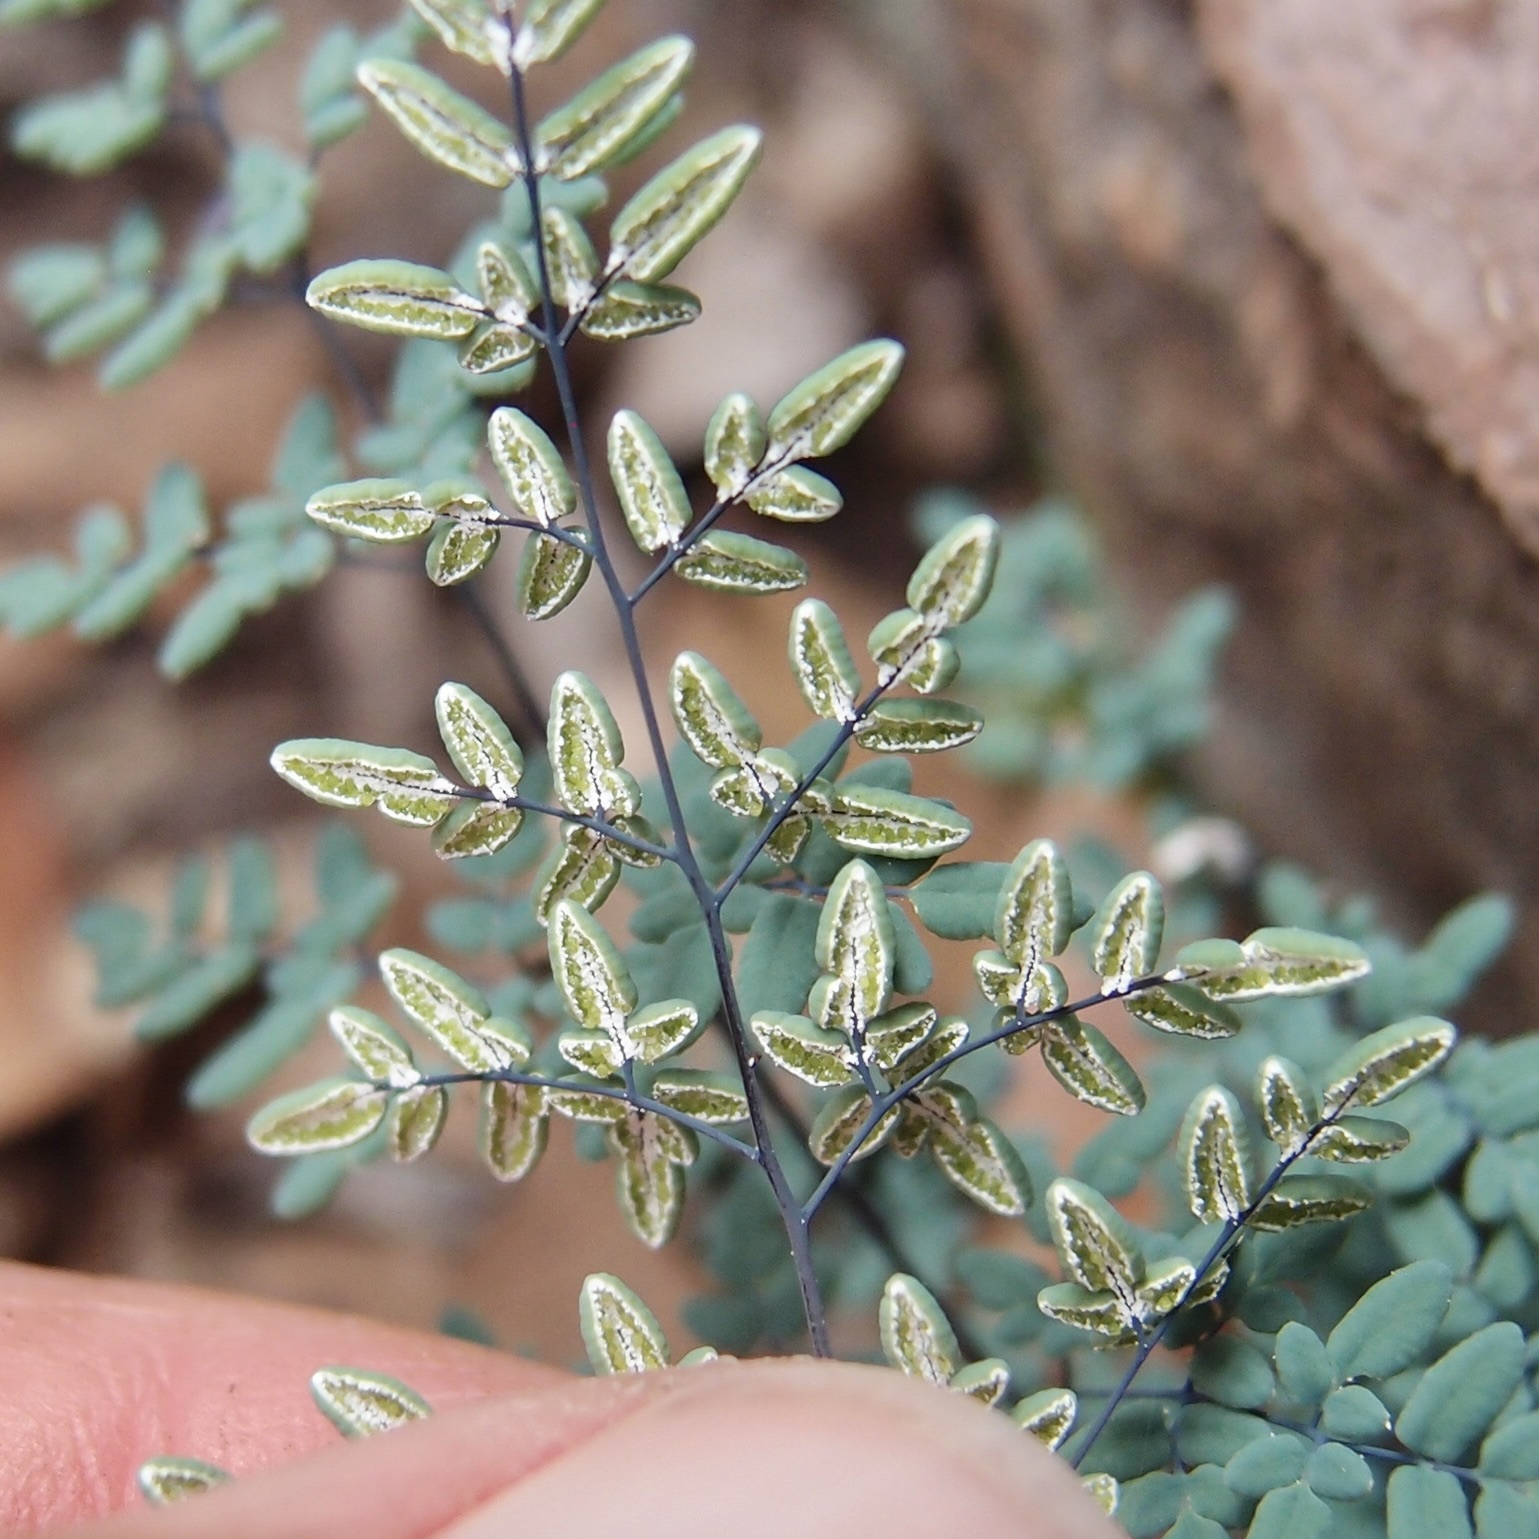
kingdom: Plantae
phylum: Tracheophyta
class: Polypodiopsida
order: Polypodiales
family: Pteridaceae
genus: Argyrochosma
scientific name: Argyrochosma limitanea
